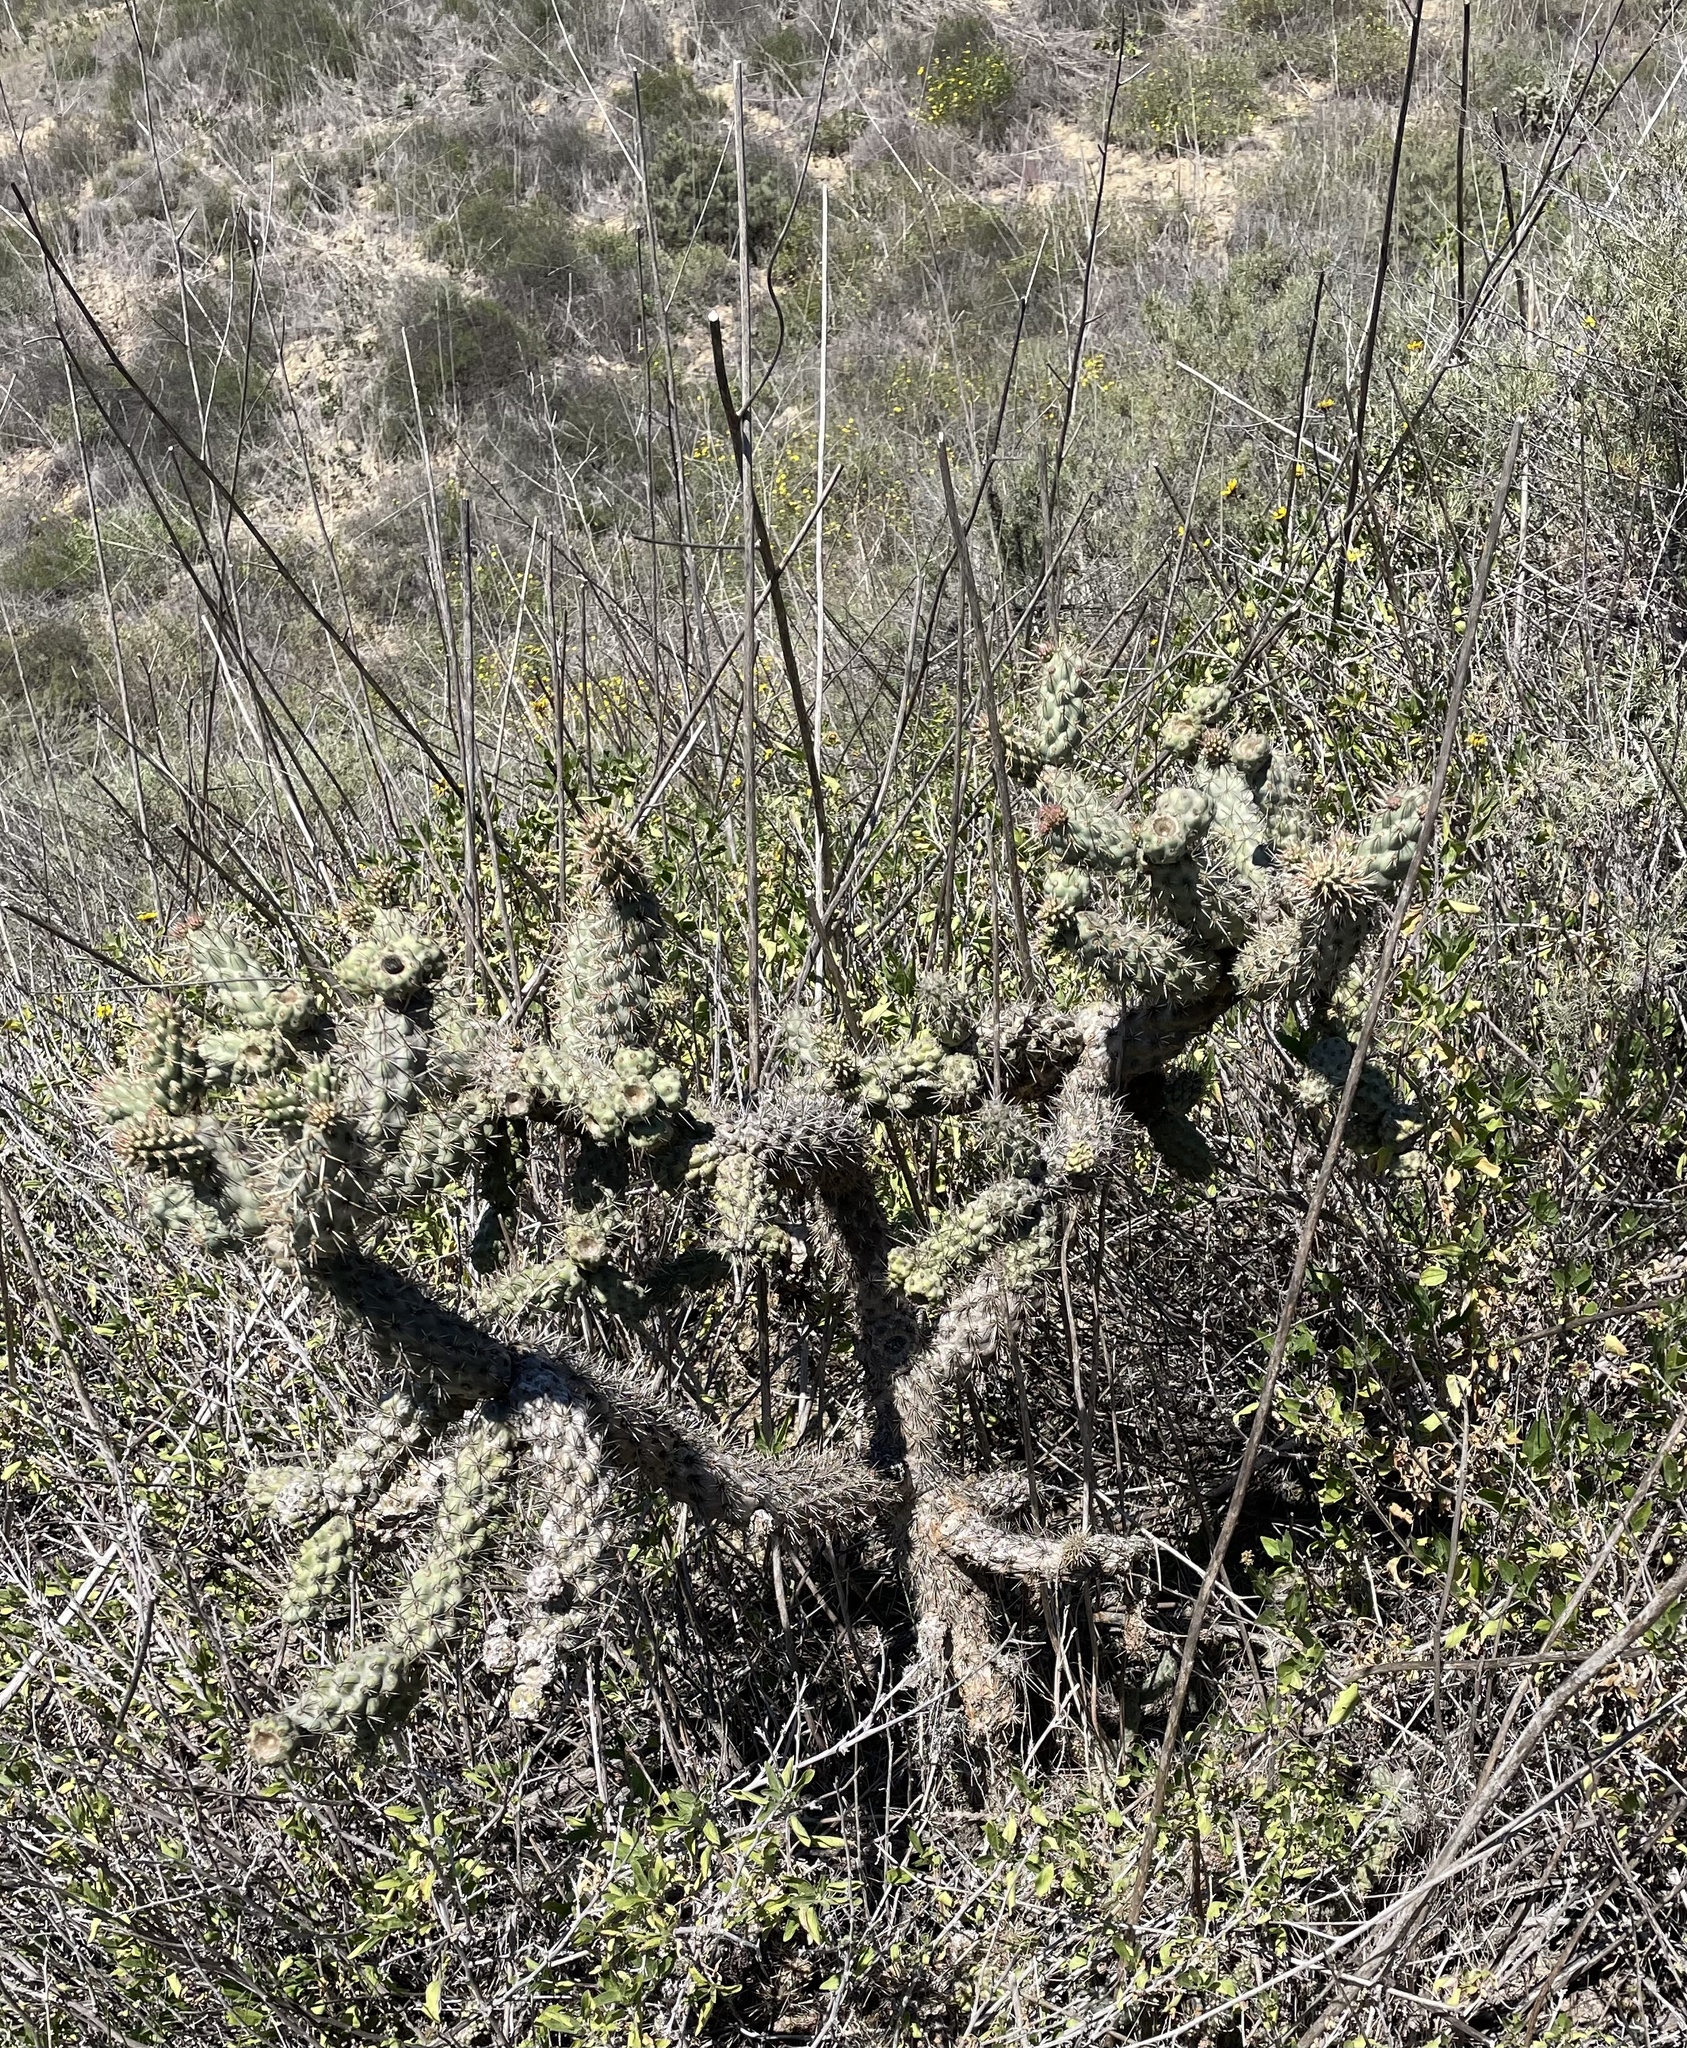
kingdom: Plantae
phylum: Tracheophyta
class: Magnoliopsida
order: Caryophyllales
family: Cactaceae
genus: Cylindropuntia
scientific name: Cylindropuntia prolifera
